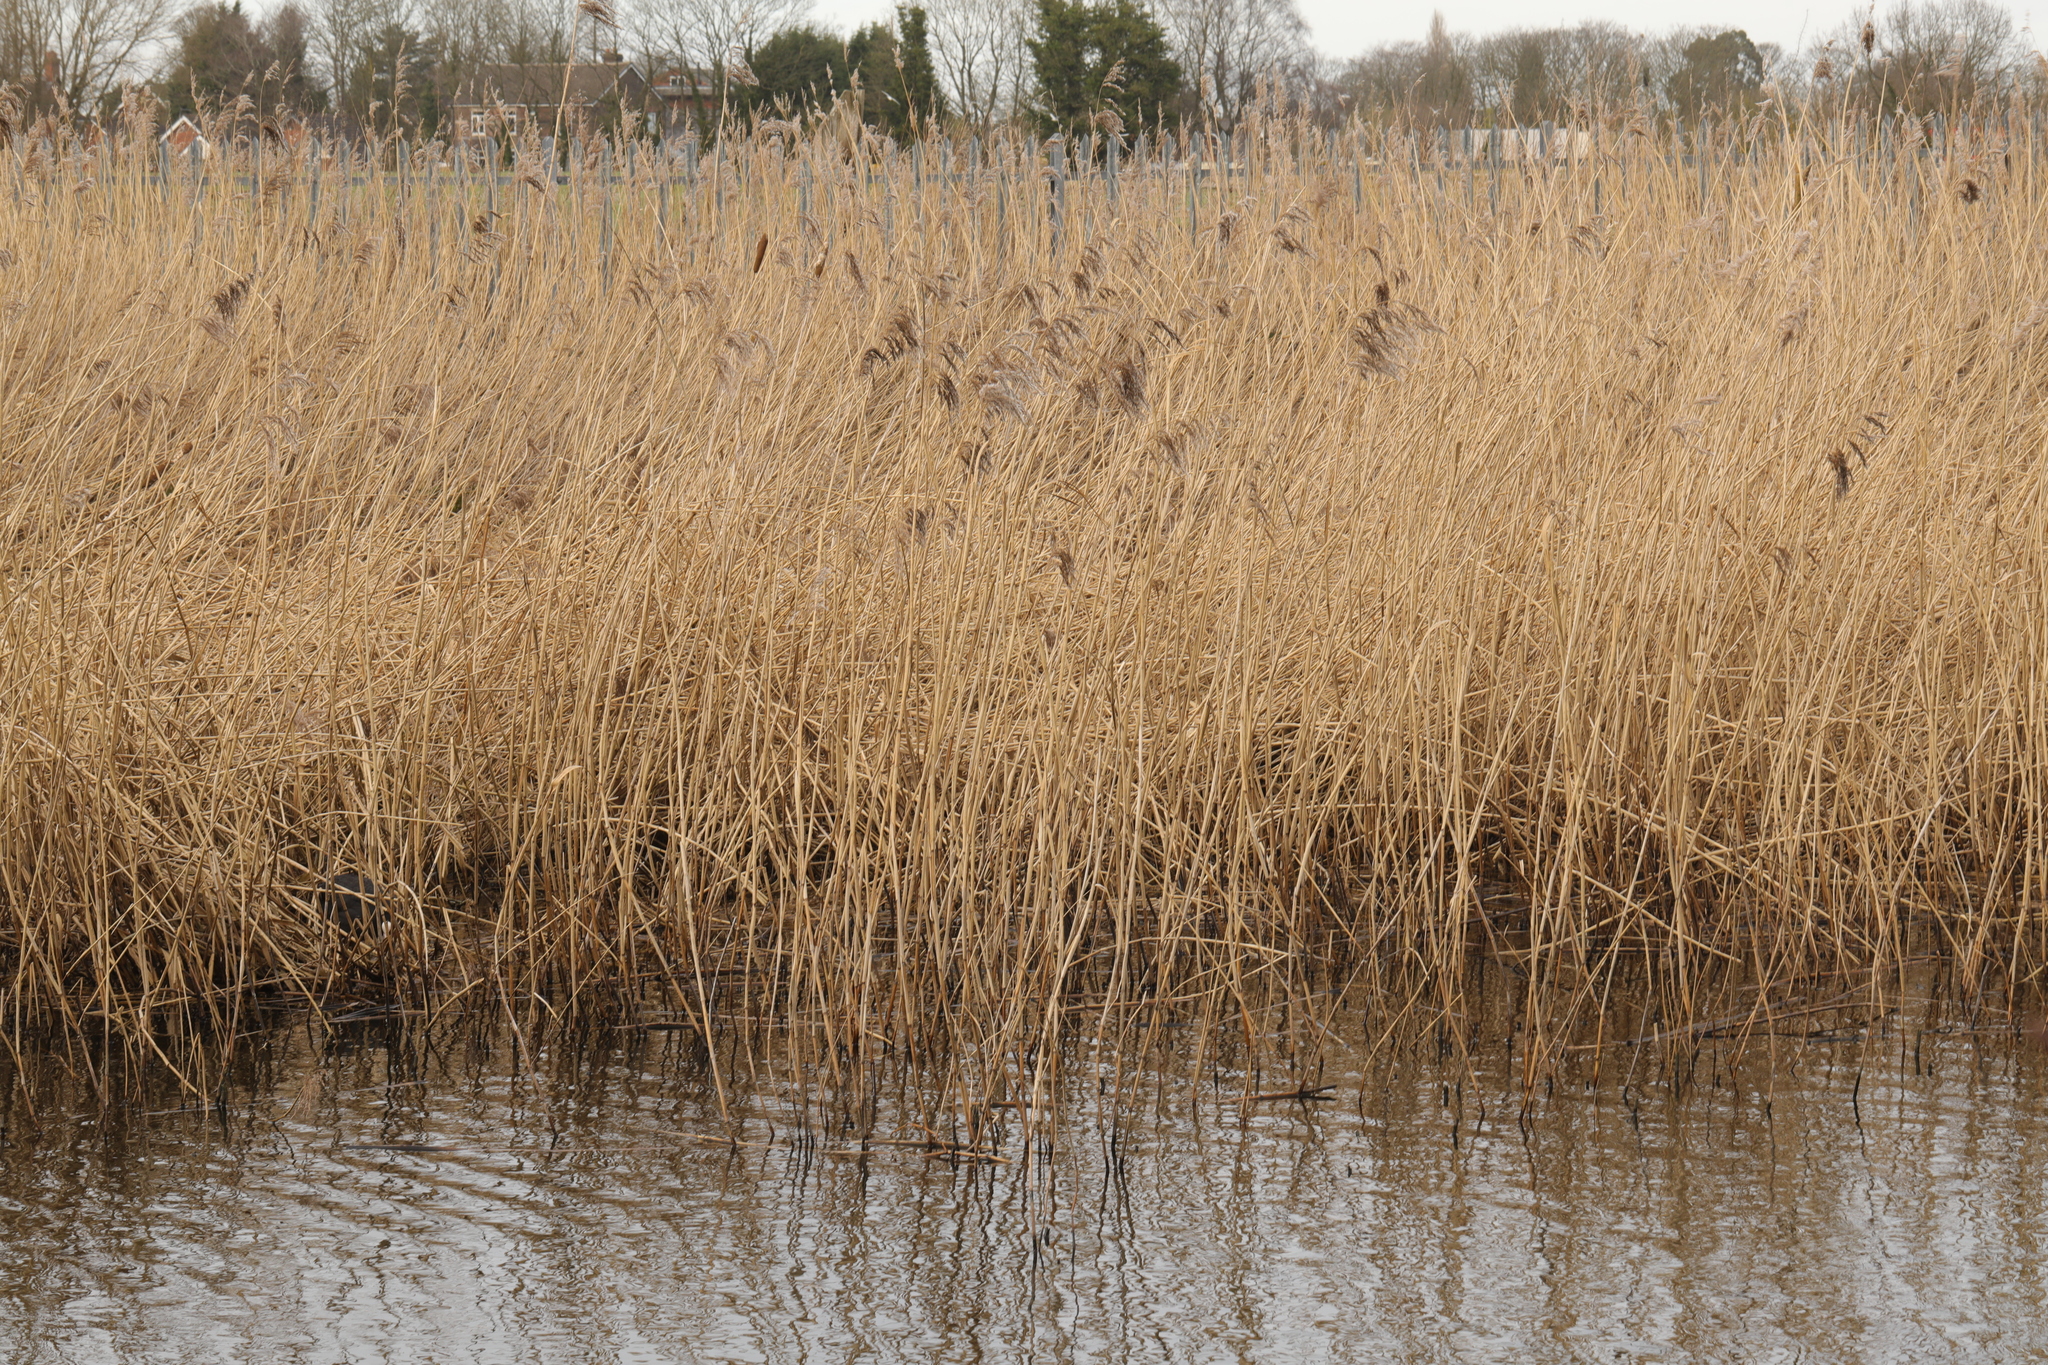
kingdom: Plantae
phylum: Tracheophyta
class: Liliopsida
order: Poales
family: Poaceae
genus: Phragmites
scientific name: Phragmites australis
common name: Common reed
